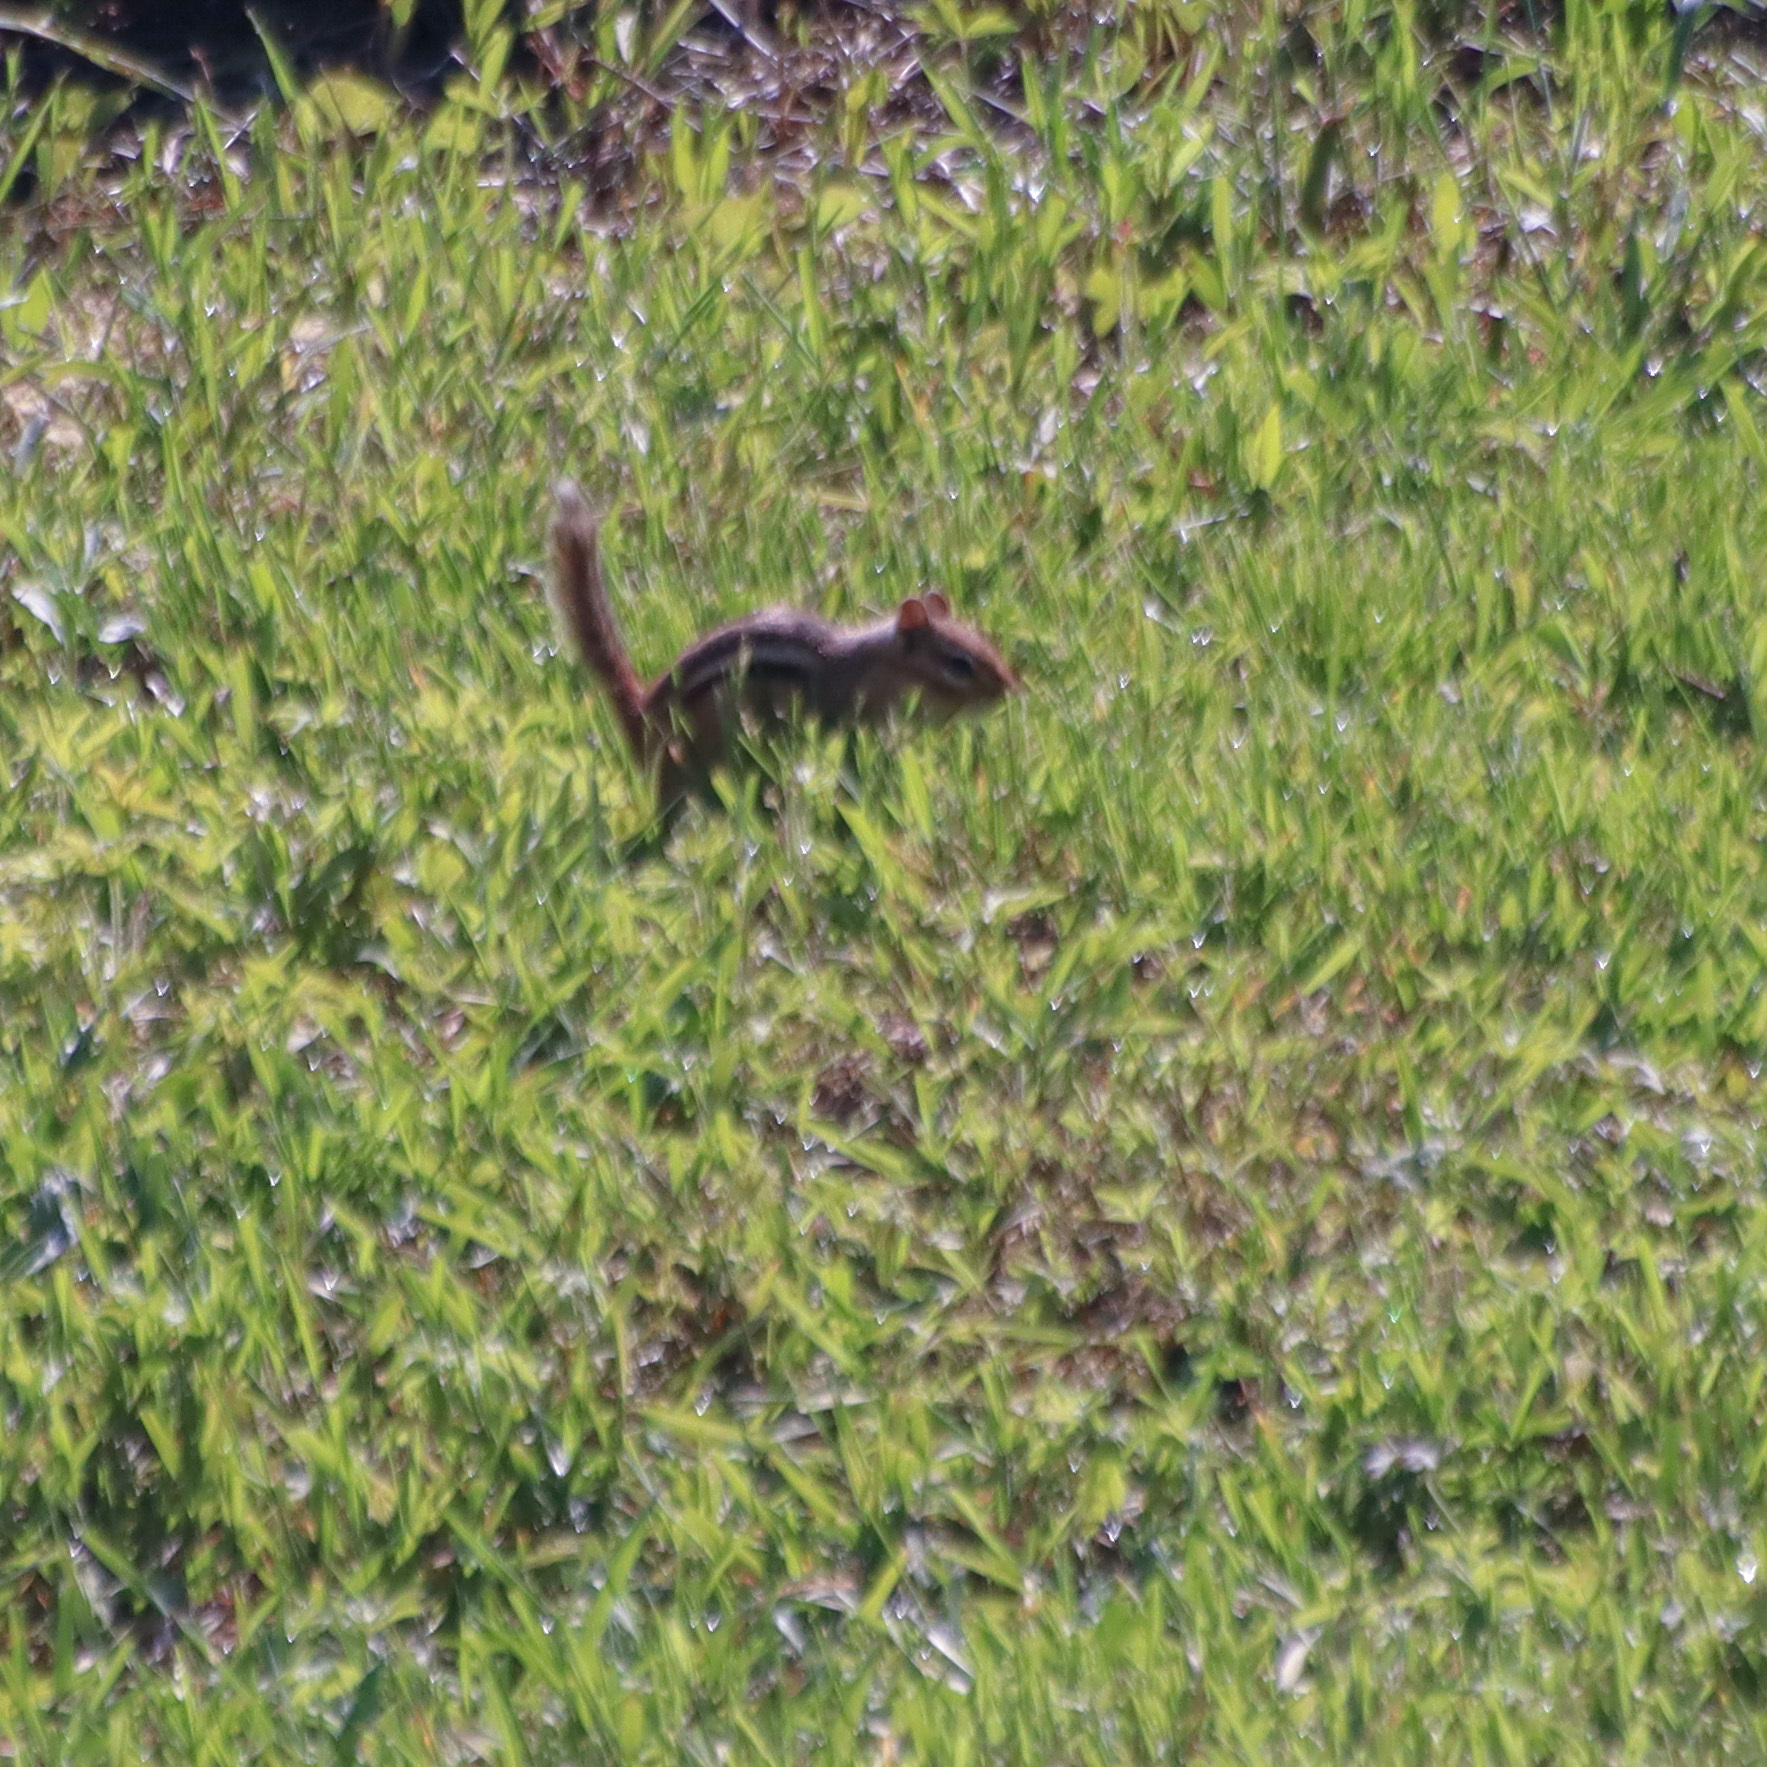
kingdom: Animalia
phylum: Chordata
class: Mammalia
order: Rodentia
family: Sciuridae
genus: Tamias
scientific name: Tamias striatus
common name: Eastern chipmunk
